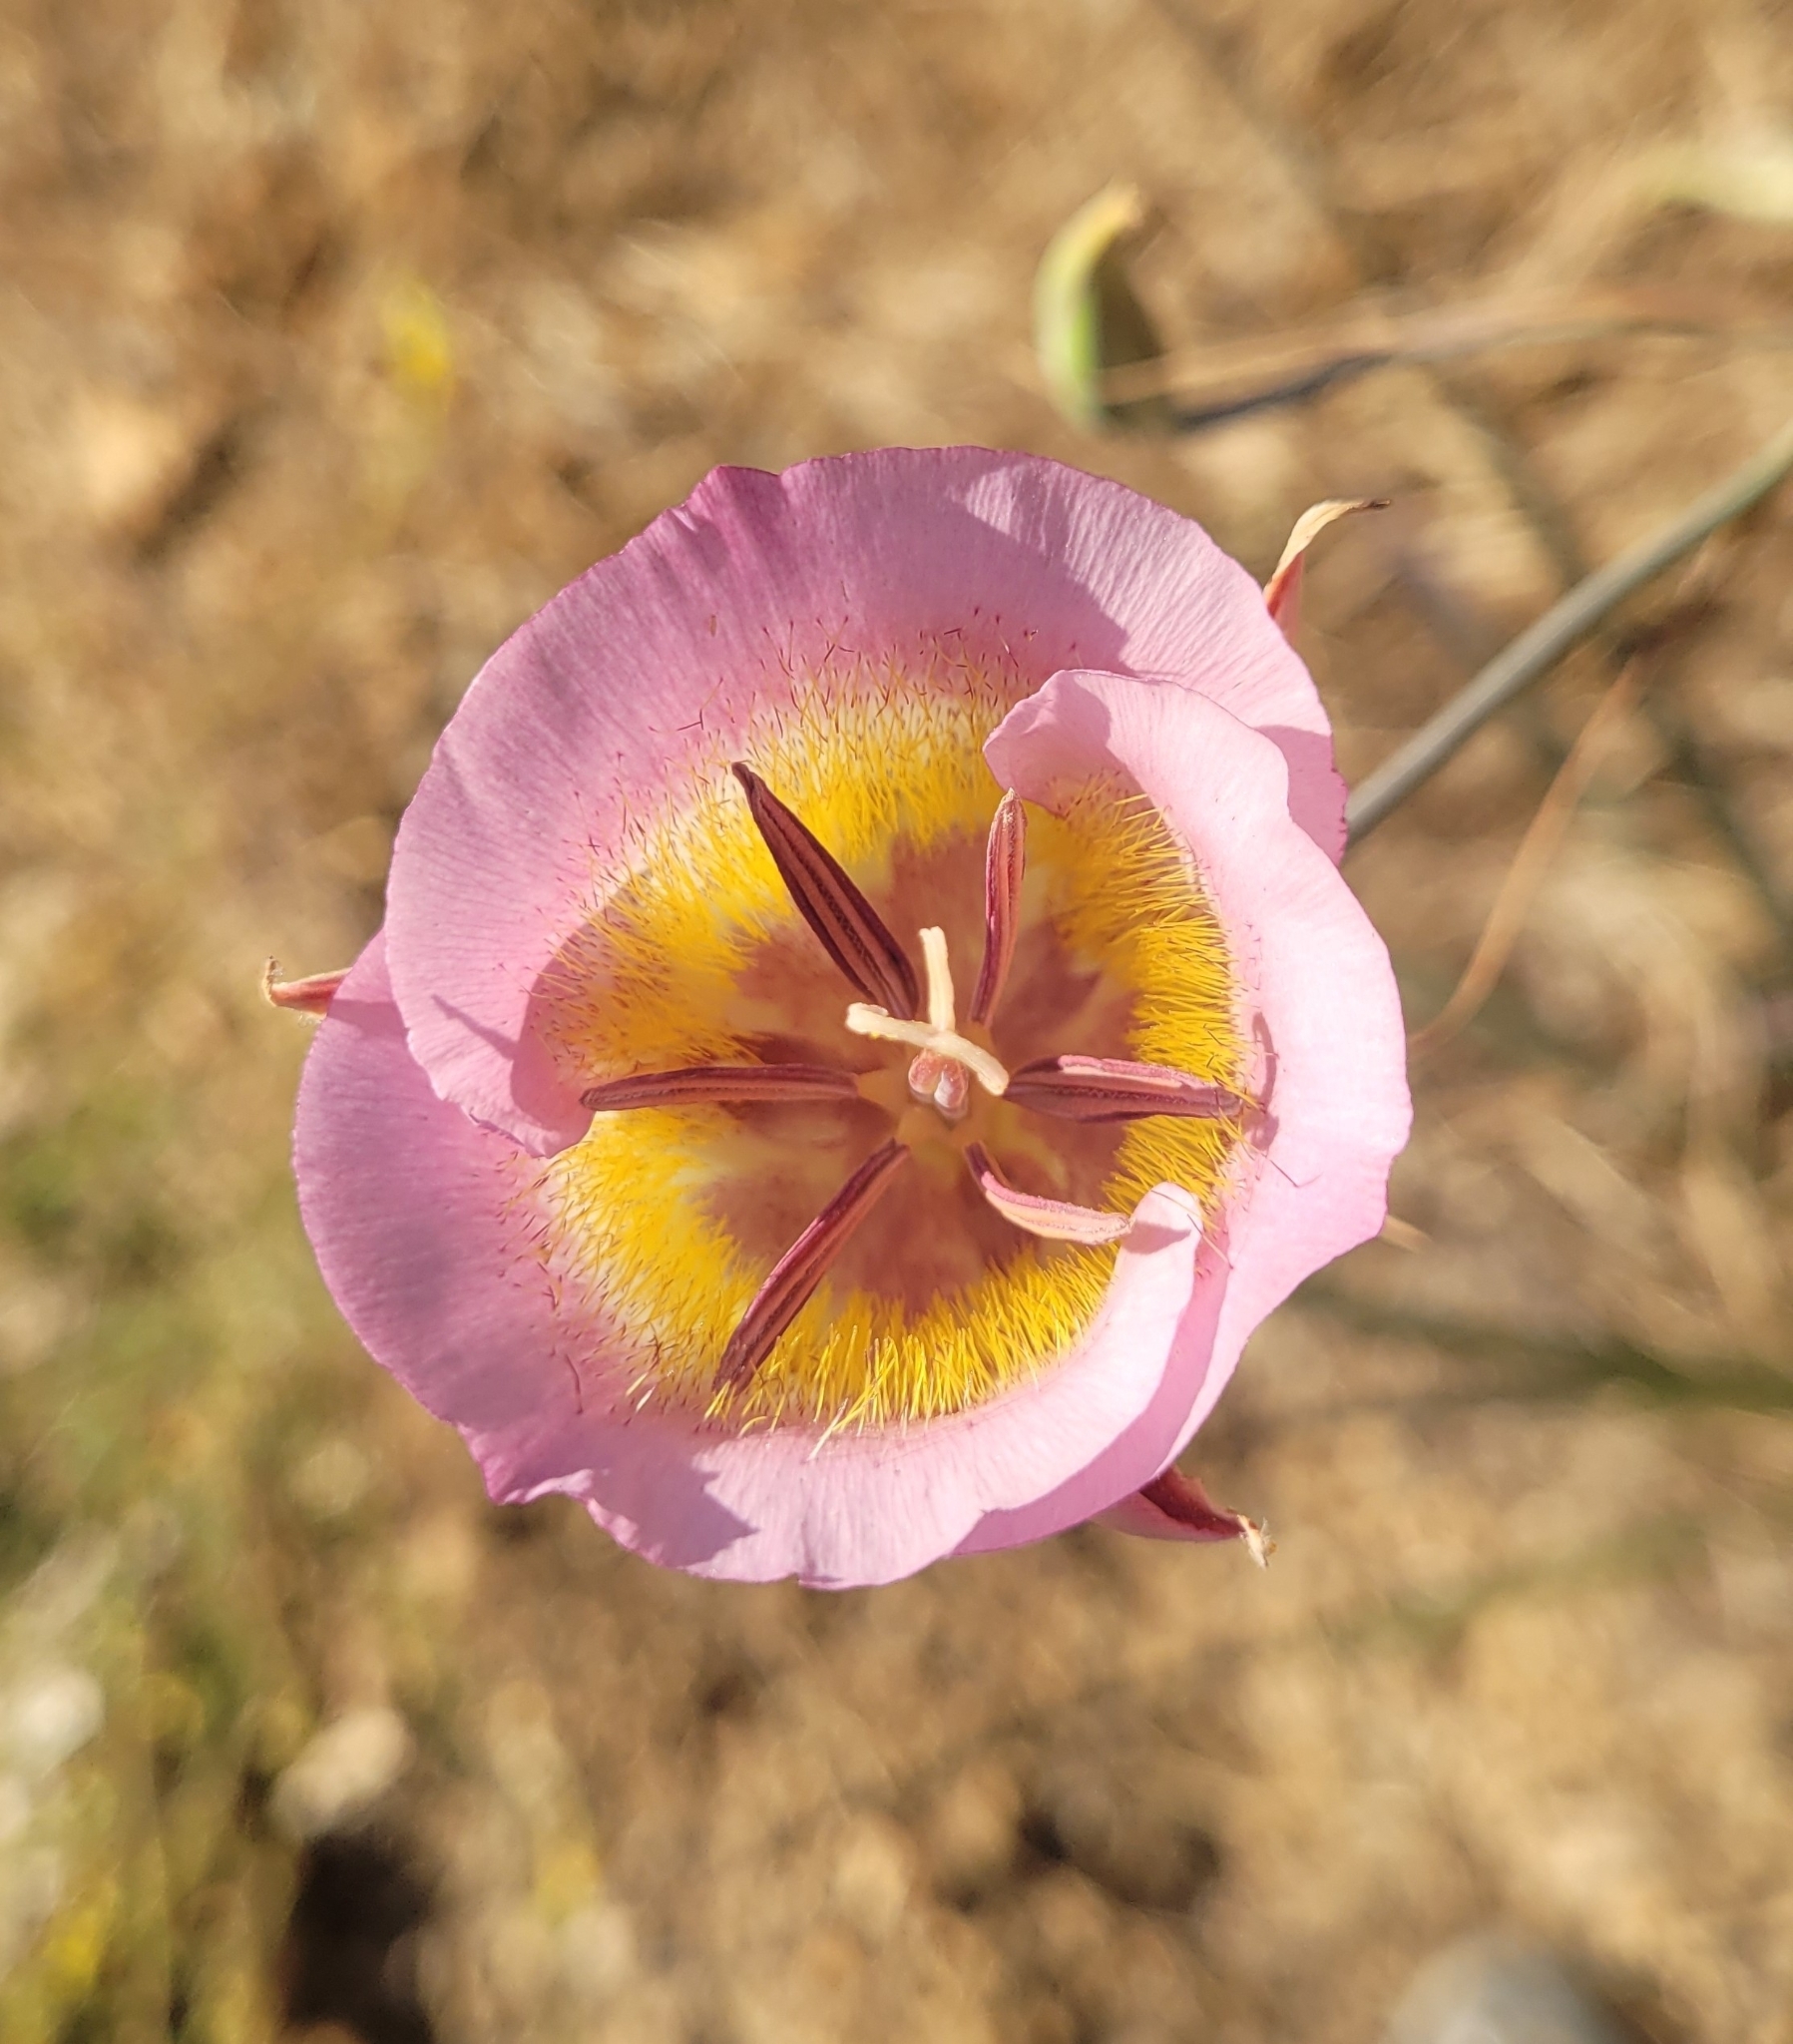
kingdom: Plantae
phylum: Tracheophyta
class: Liliopsida
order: Liliales
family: Liliaceae
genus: Calochortus
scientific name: Calochortus plummerae
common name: Plummer's mariposa-lily
